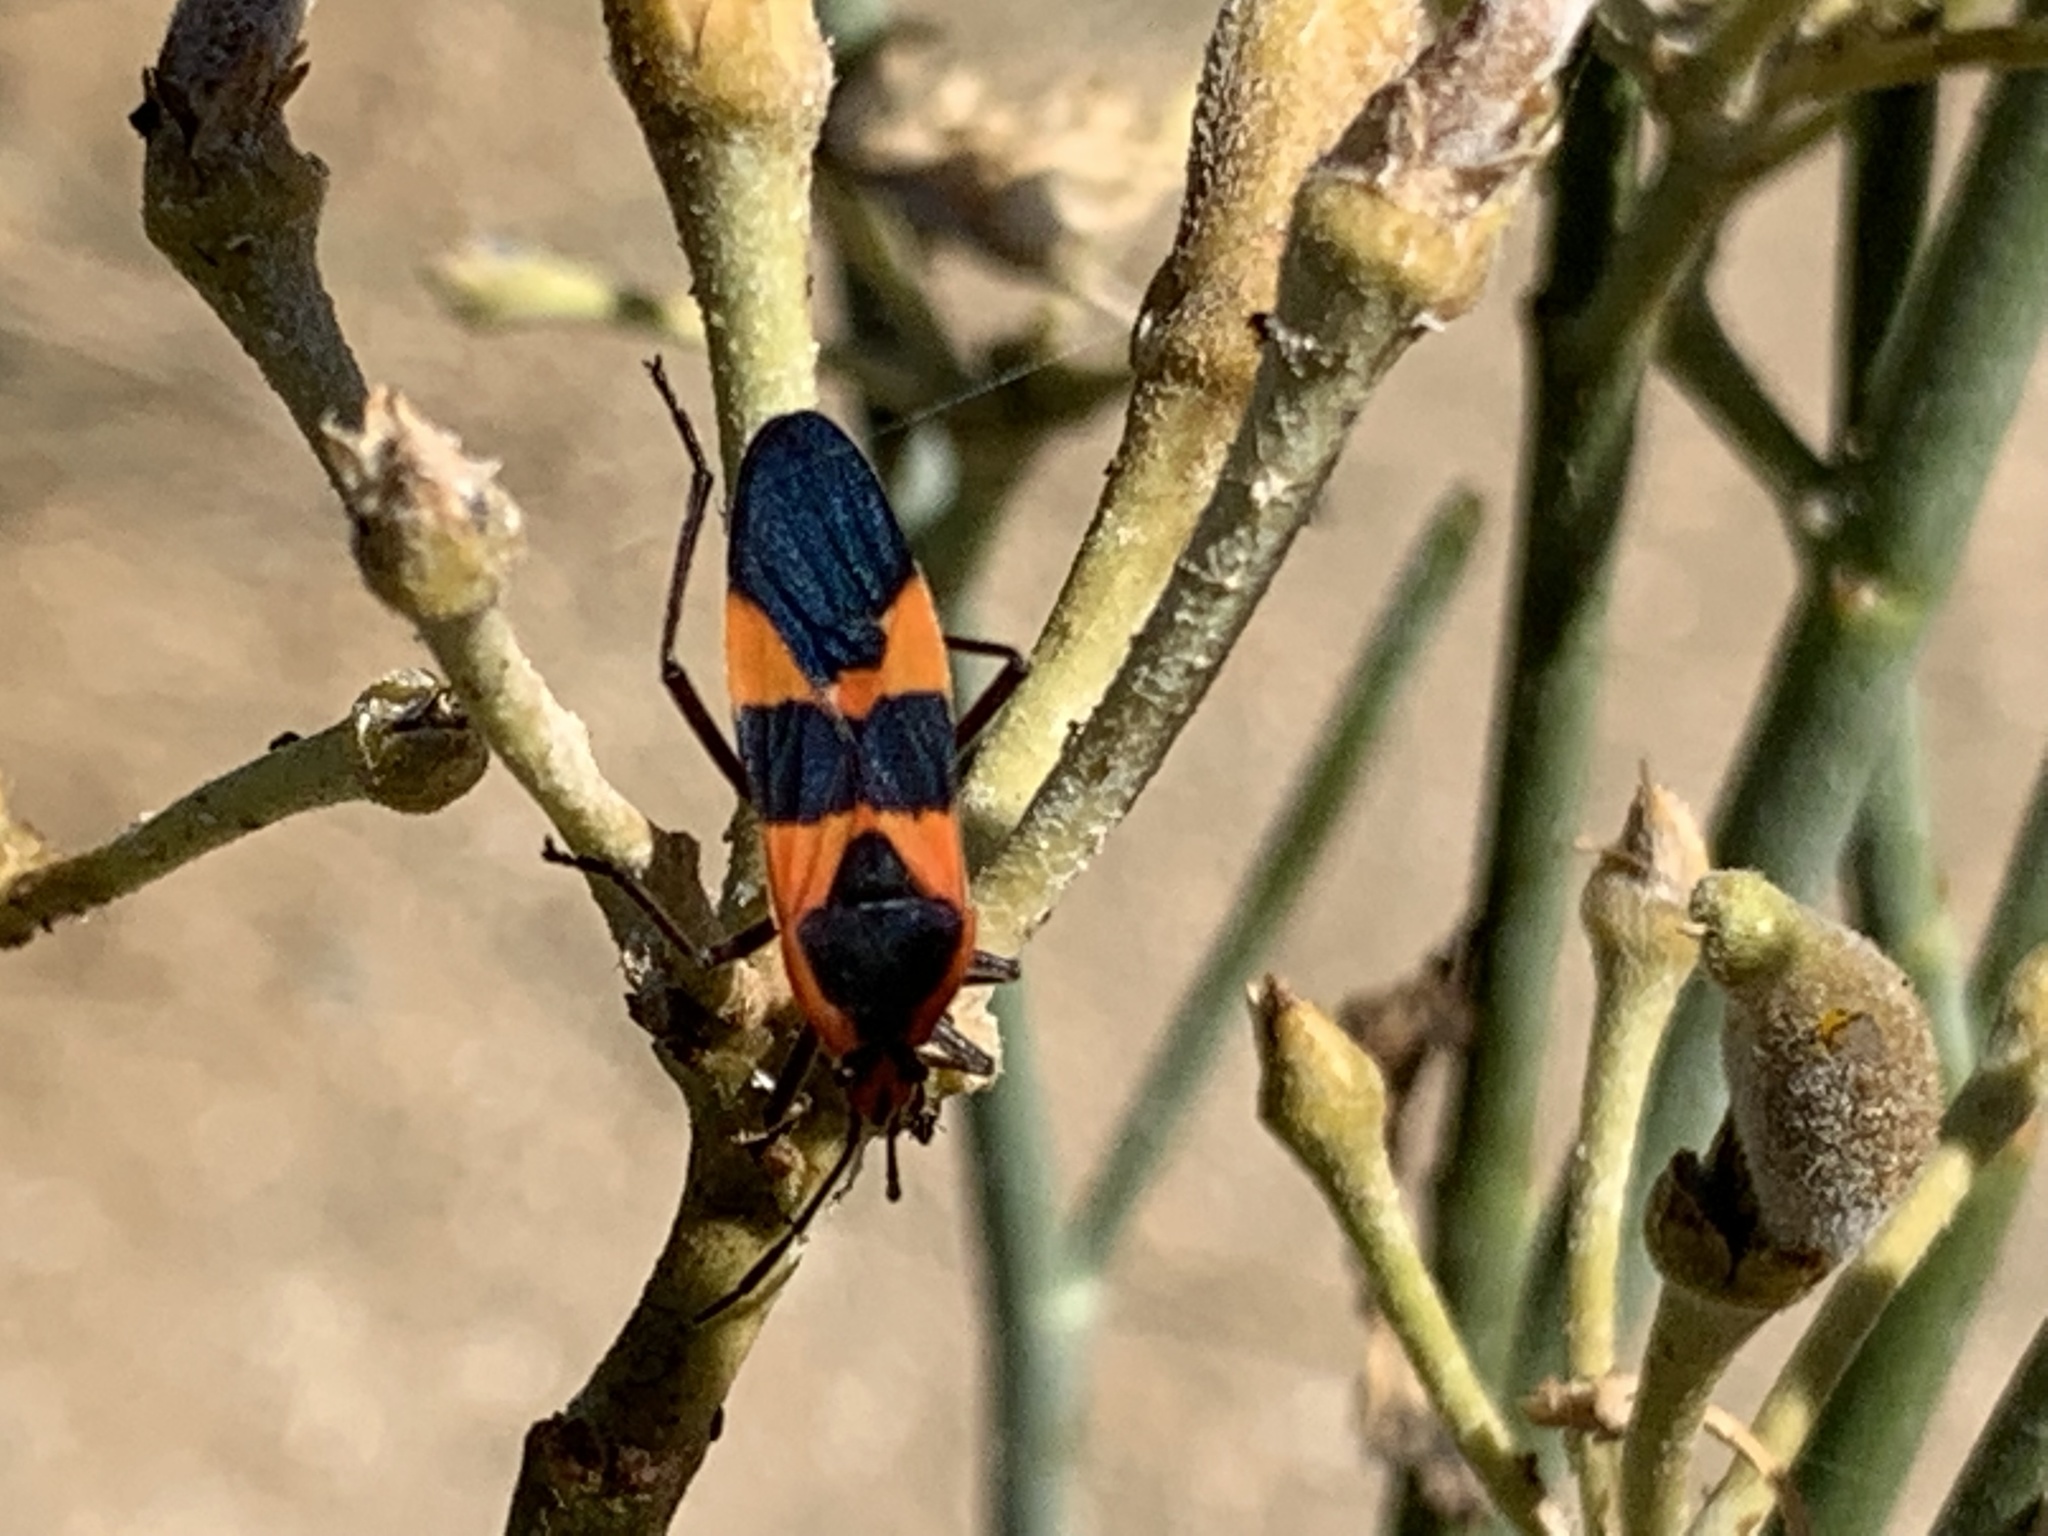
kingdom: Animalia
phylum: Arthropoda
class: Insecta
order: Hemiptera
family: Lygaeidae
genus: Oncopeltus
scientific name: Oncopeltus fasciatus
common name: Large milkweed bug
